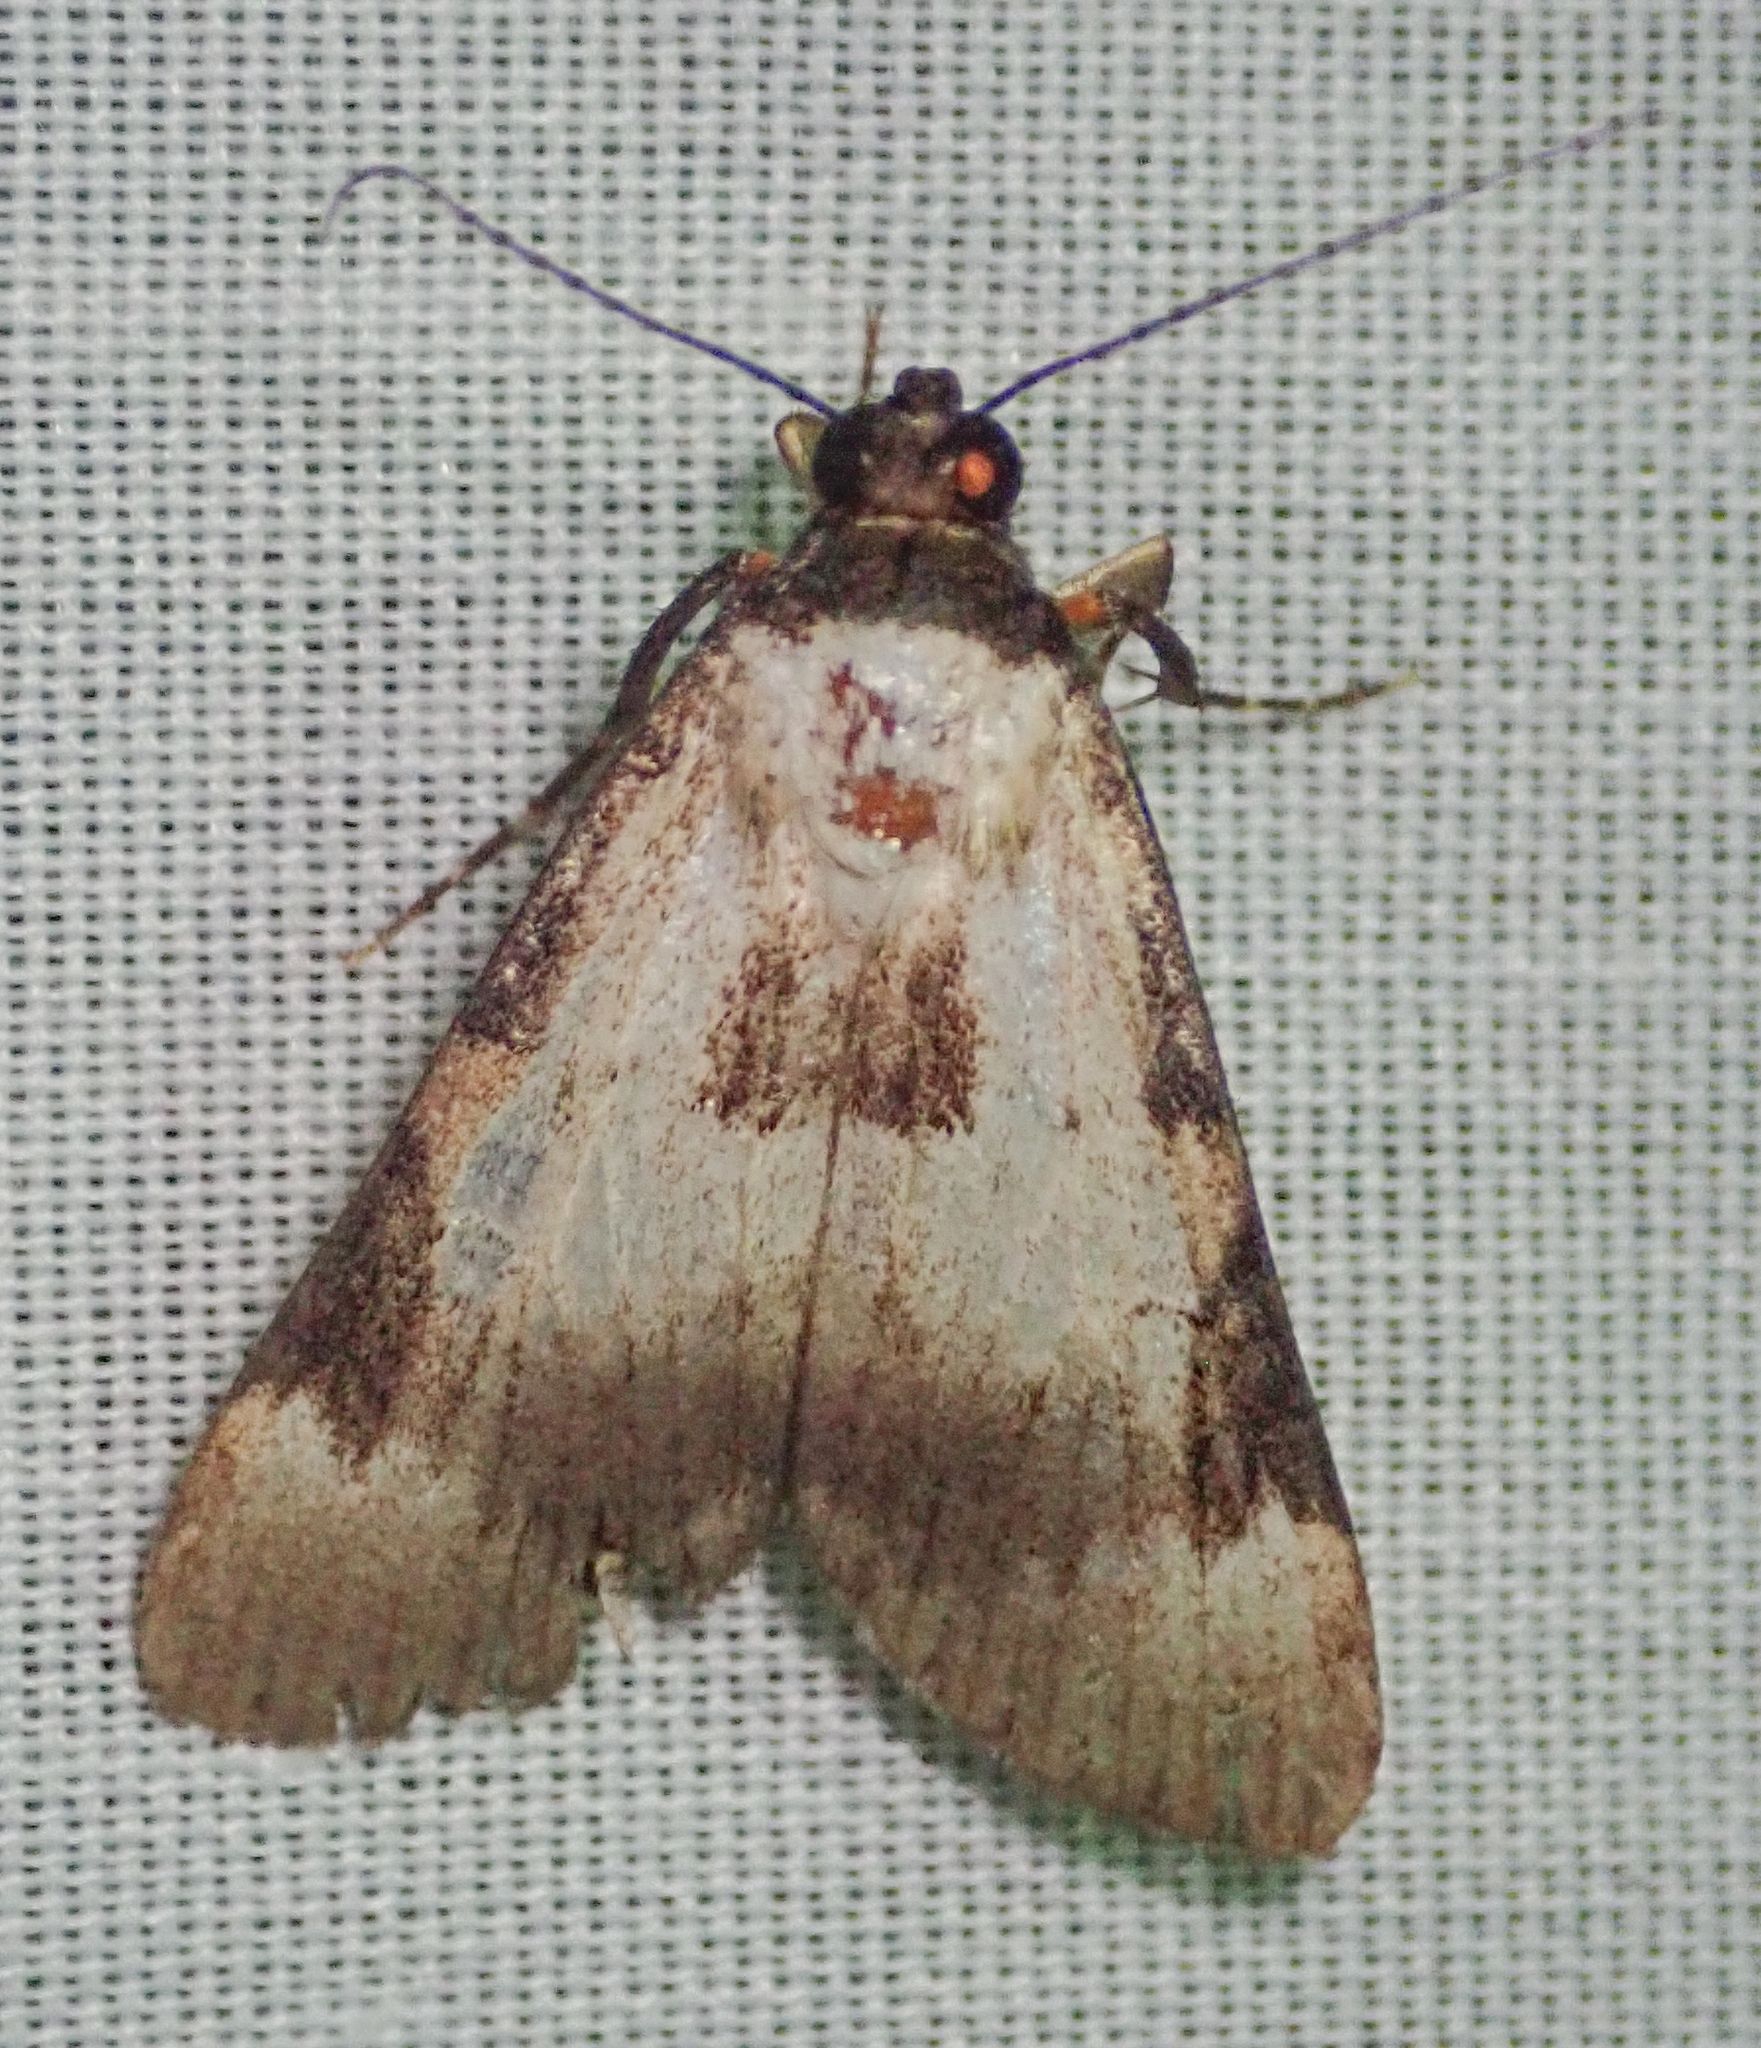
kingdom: Animalia
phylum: Arthropoda
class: Insecta
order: Lepidoptera
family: Erebidae
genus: Audea
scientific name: Audea melanoplaga
